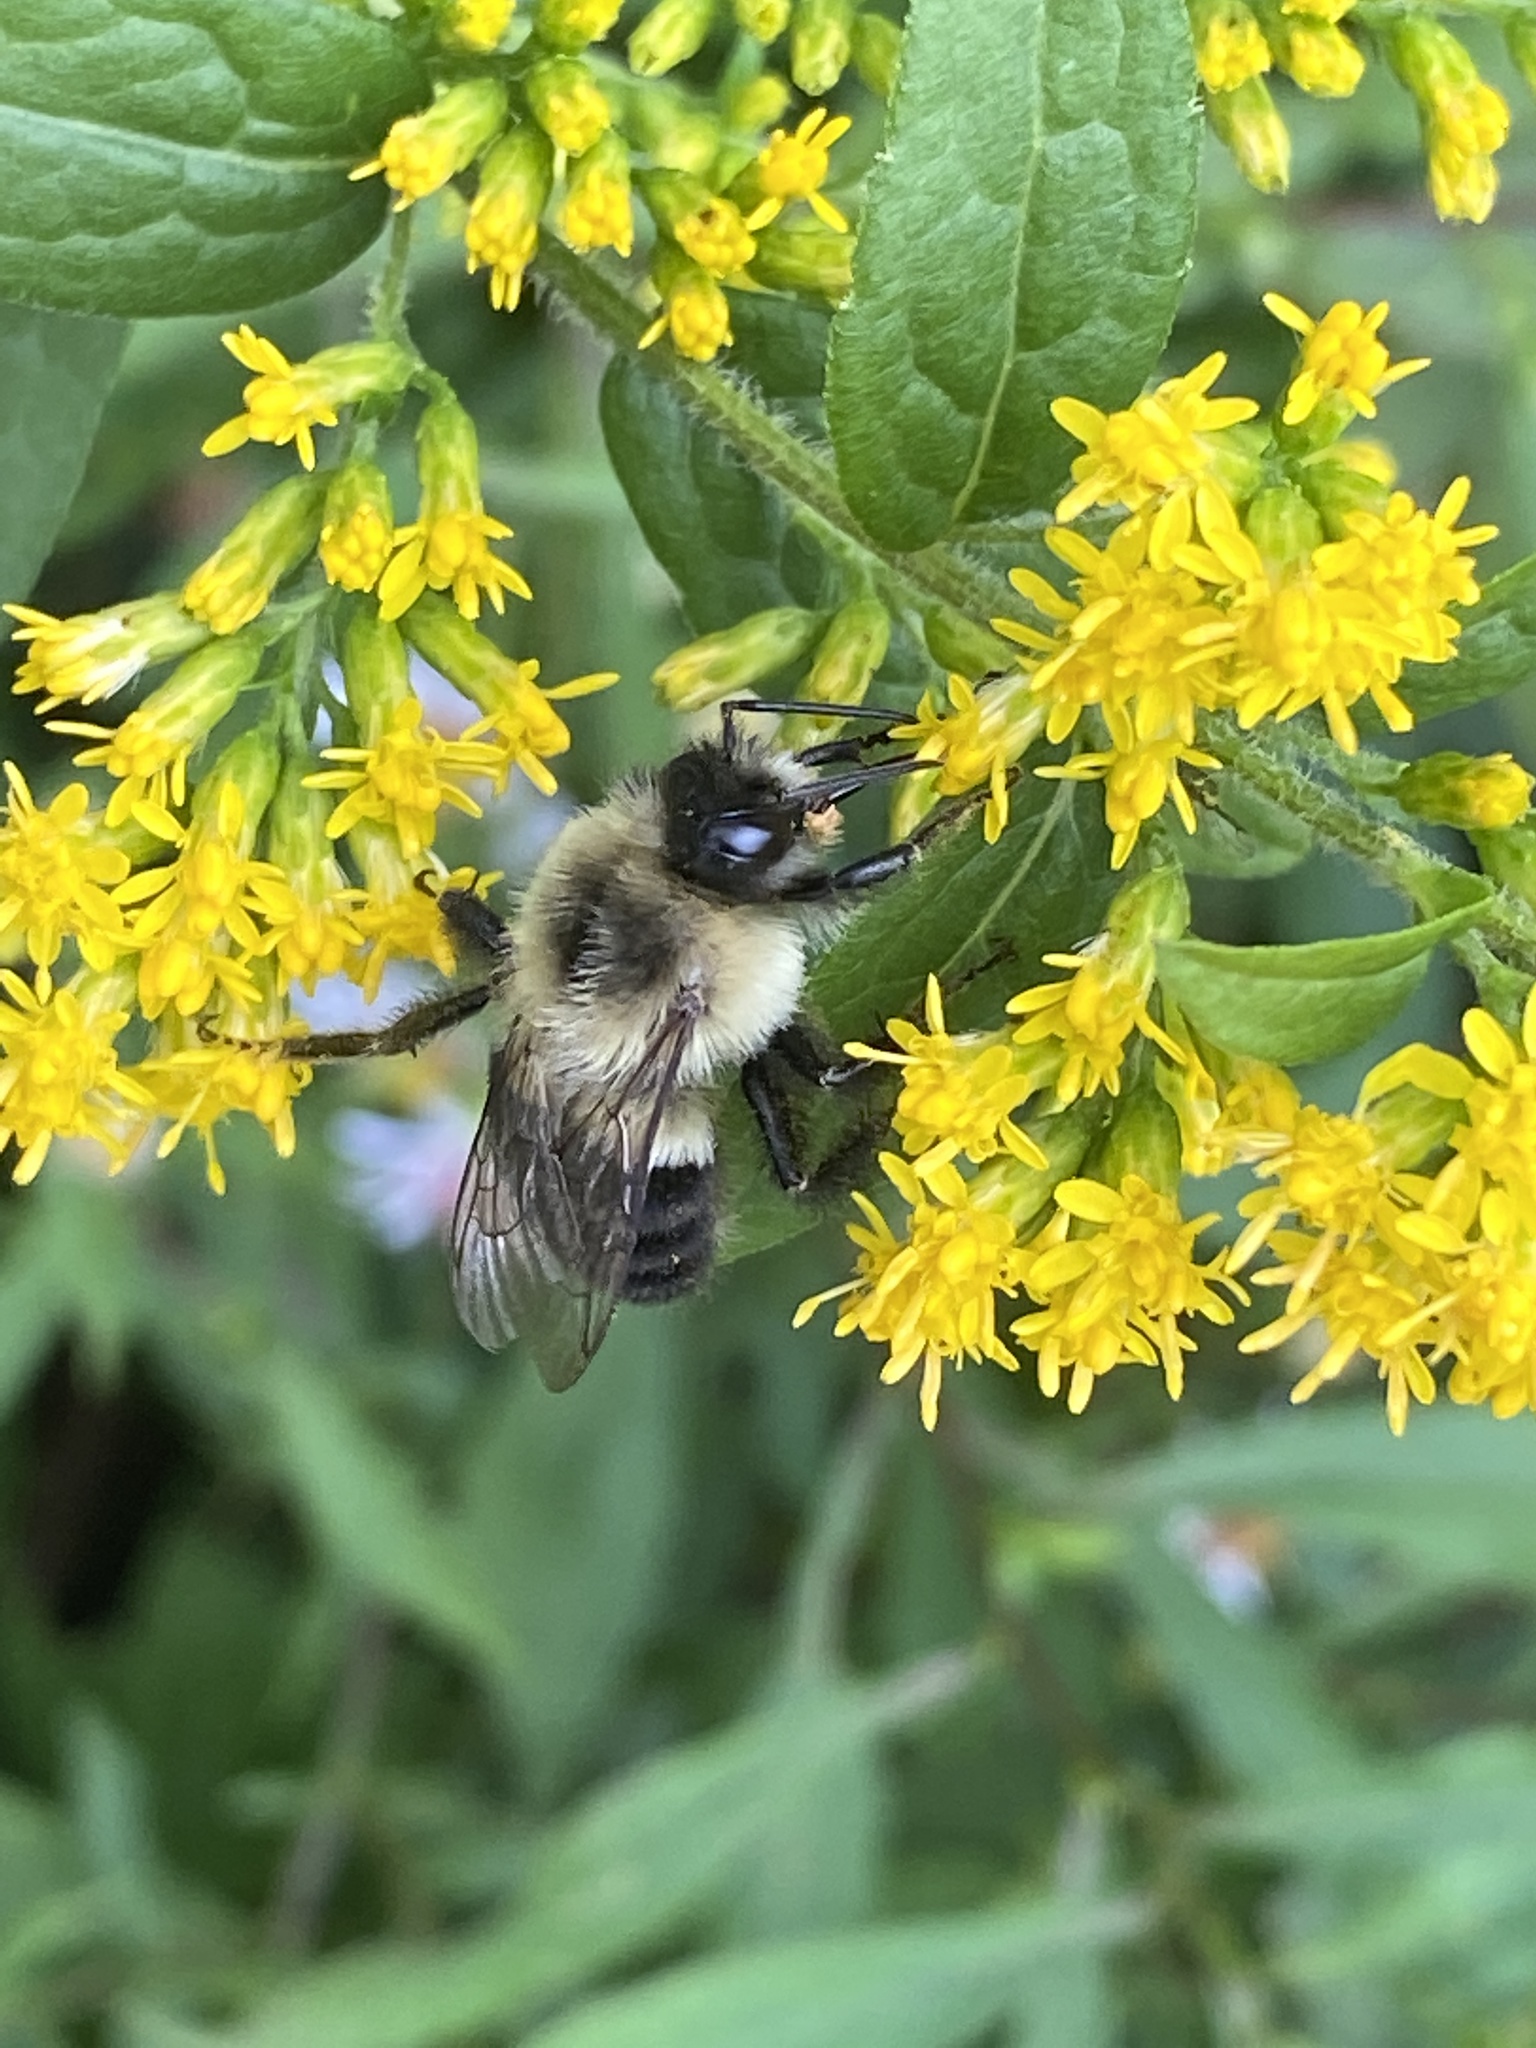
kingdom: Animalia
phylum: Arthropoda
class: Insecta
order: Hymenoptera
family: Apidae
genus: Bombus
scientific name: Bombus impatiens
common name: Common eastern bumble bee
